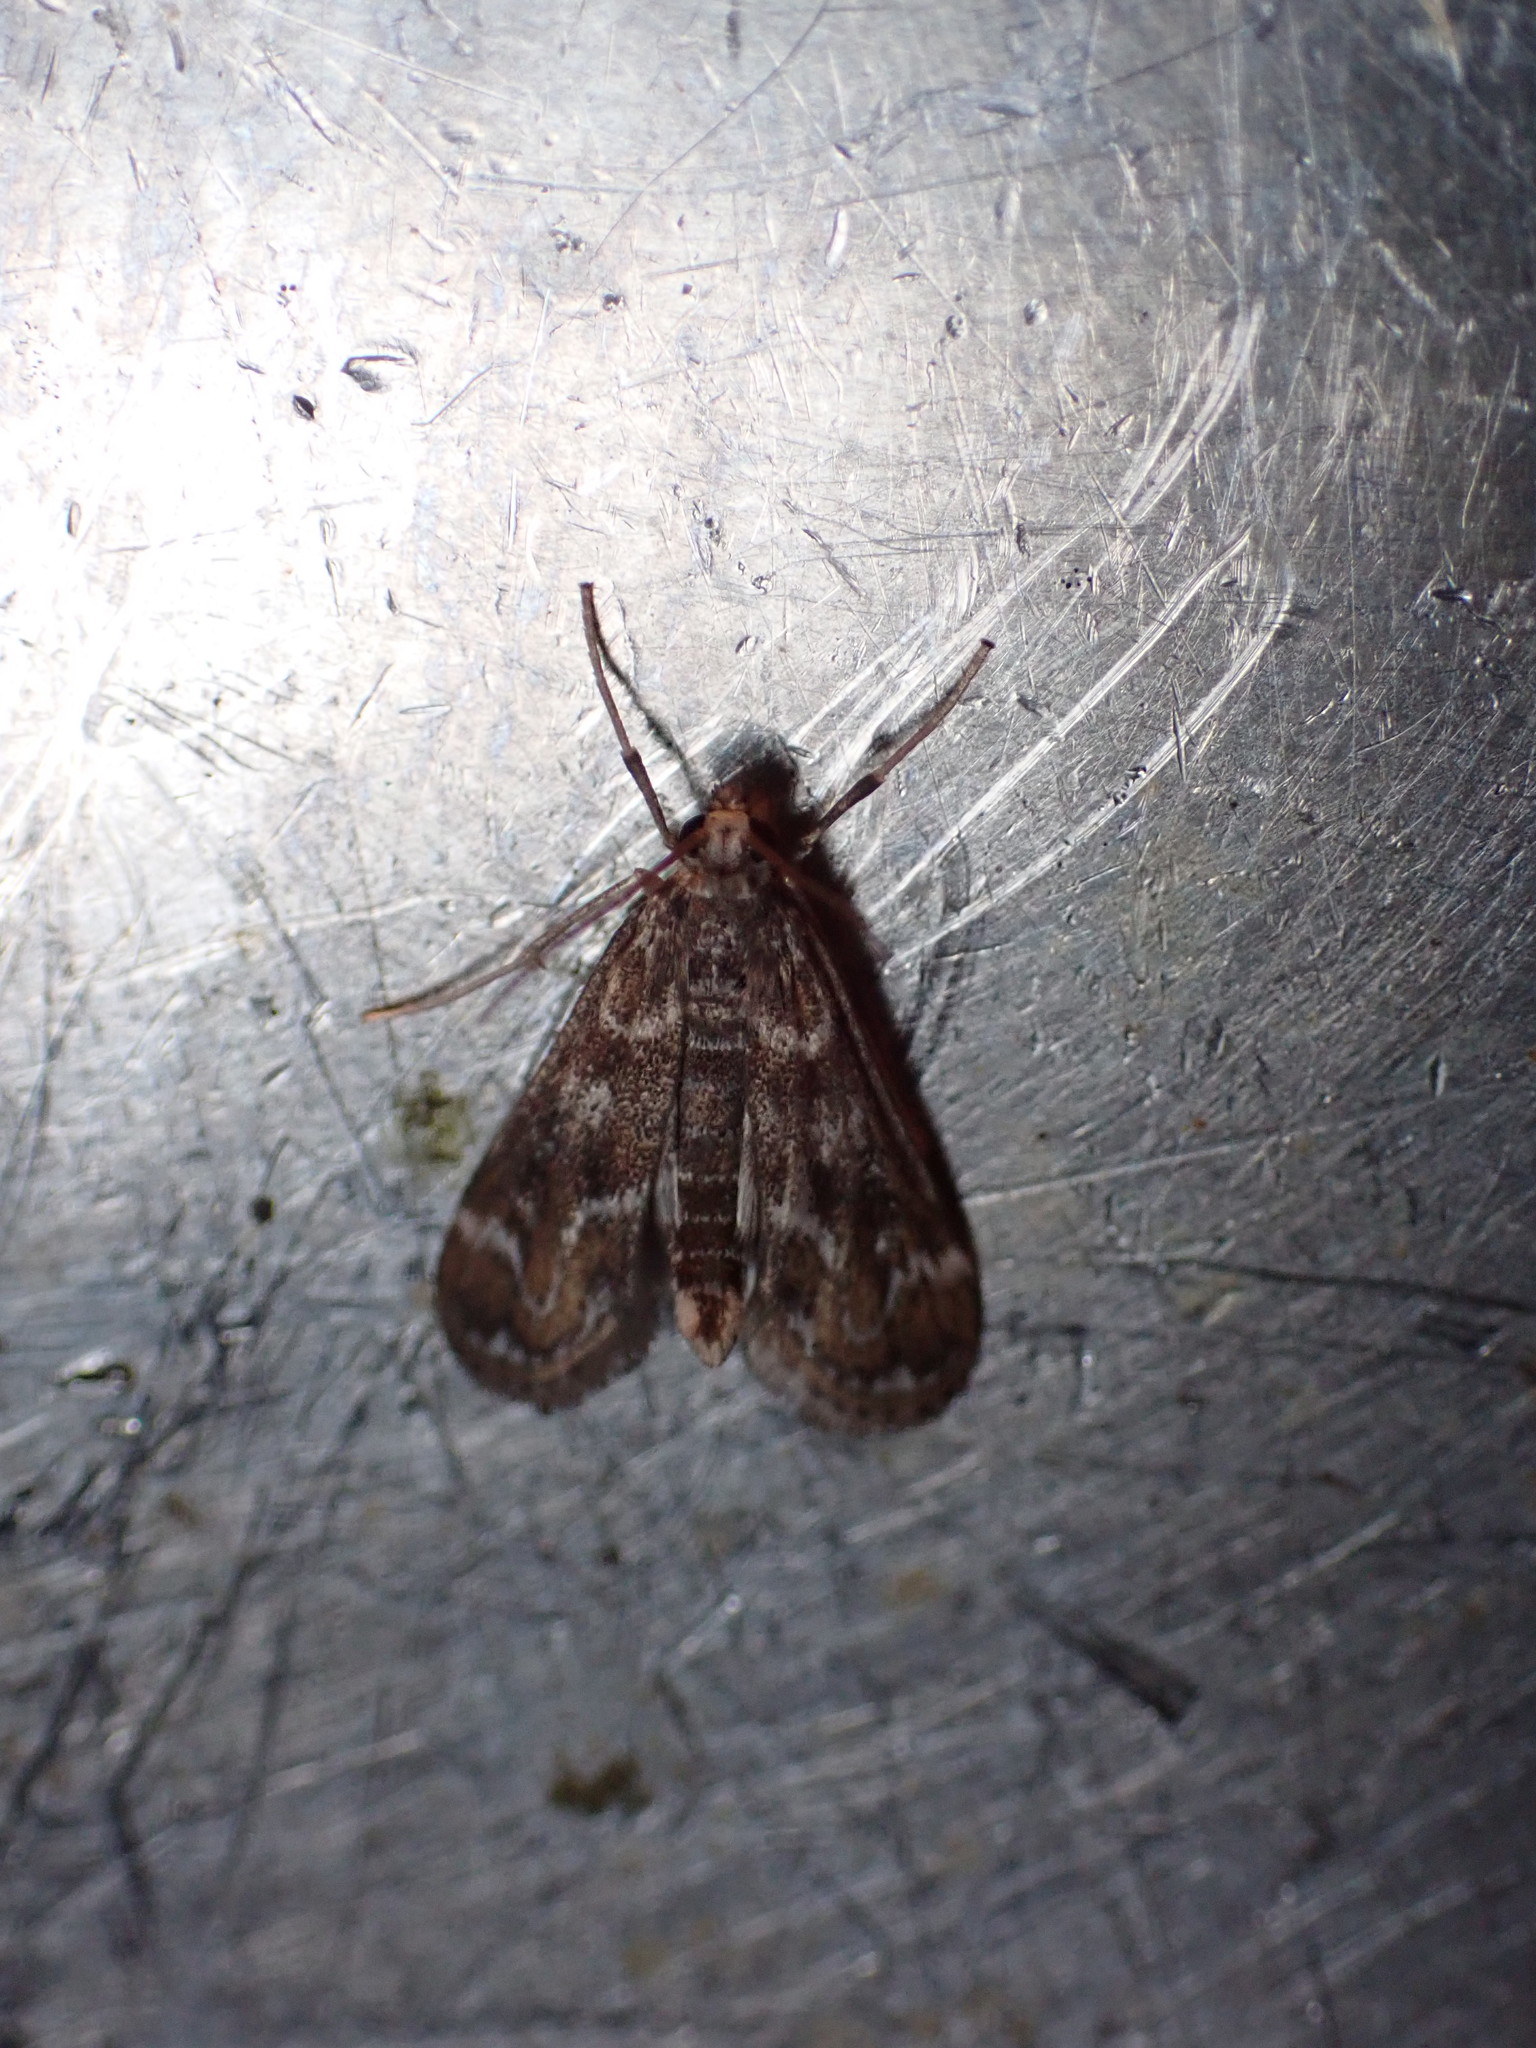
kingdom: Animalia
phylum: Arthropoda
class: Insecta
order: Lepidoptera
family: Crambidae
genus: Hygraula
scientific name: Hygraula nitens
